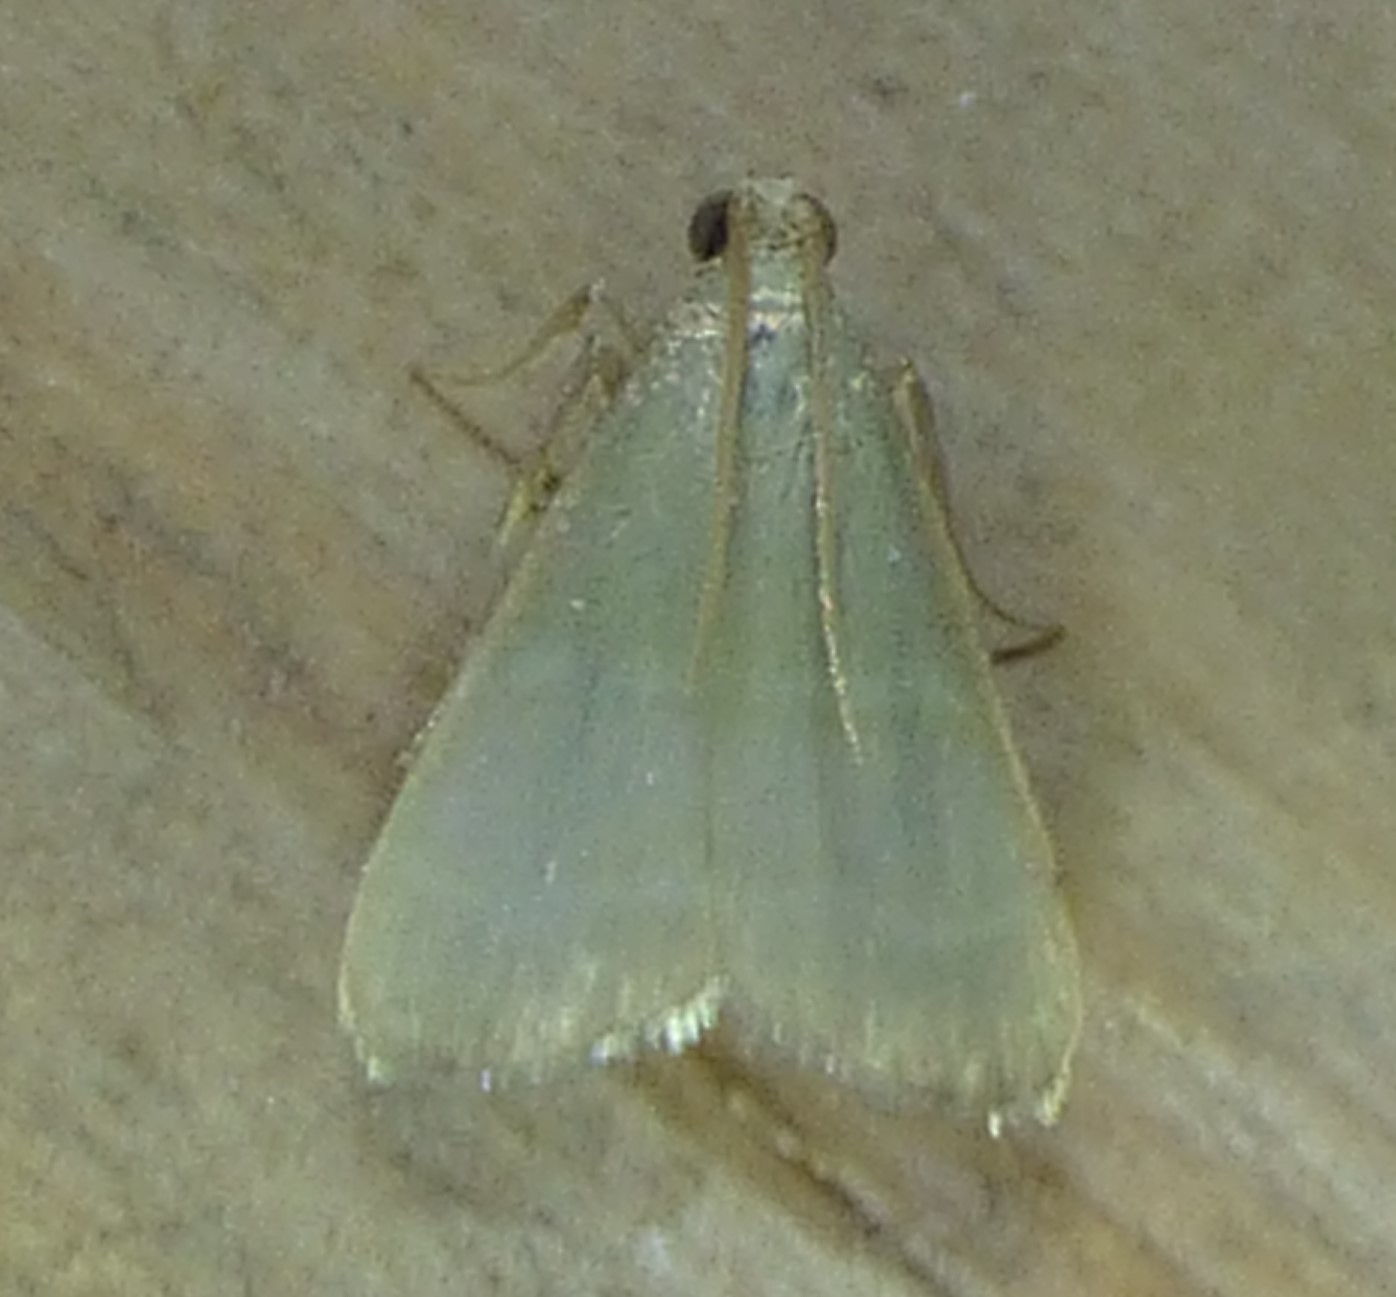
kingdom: Animalia
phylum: Arthropoda
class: Insecta
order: Lepidoptera
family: Pyralidae
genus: Arta
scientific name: Arta olivalis
